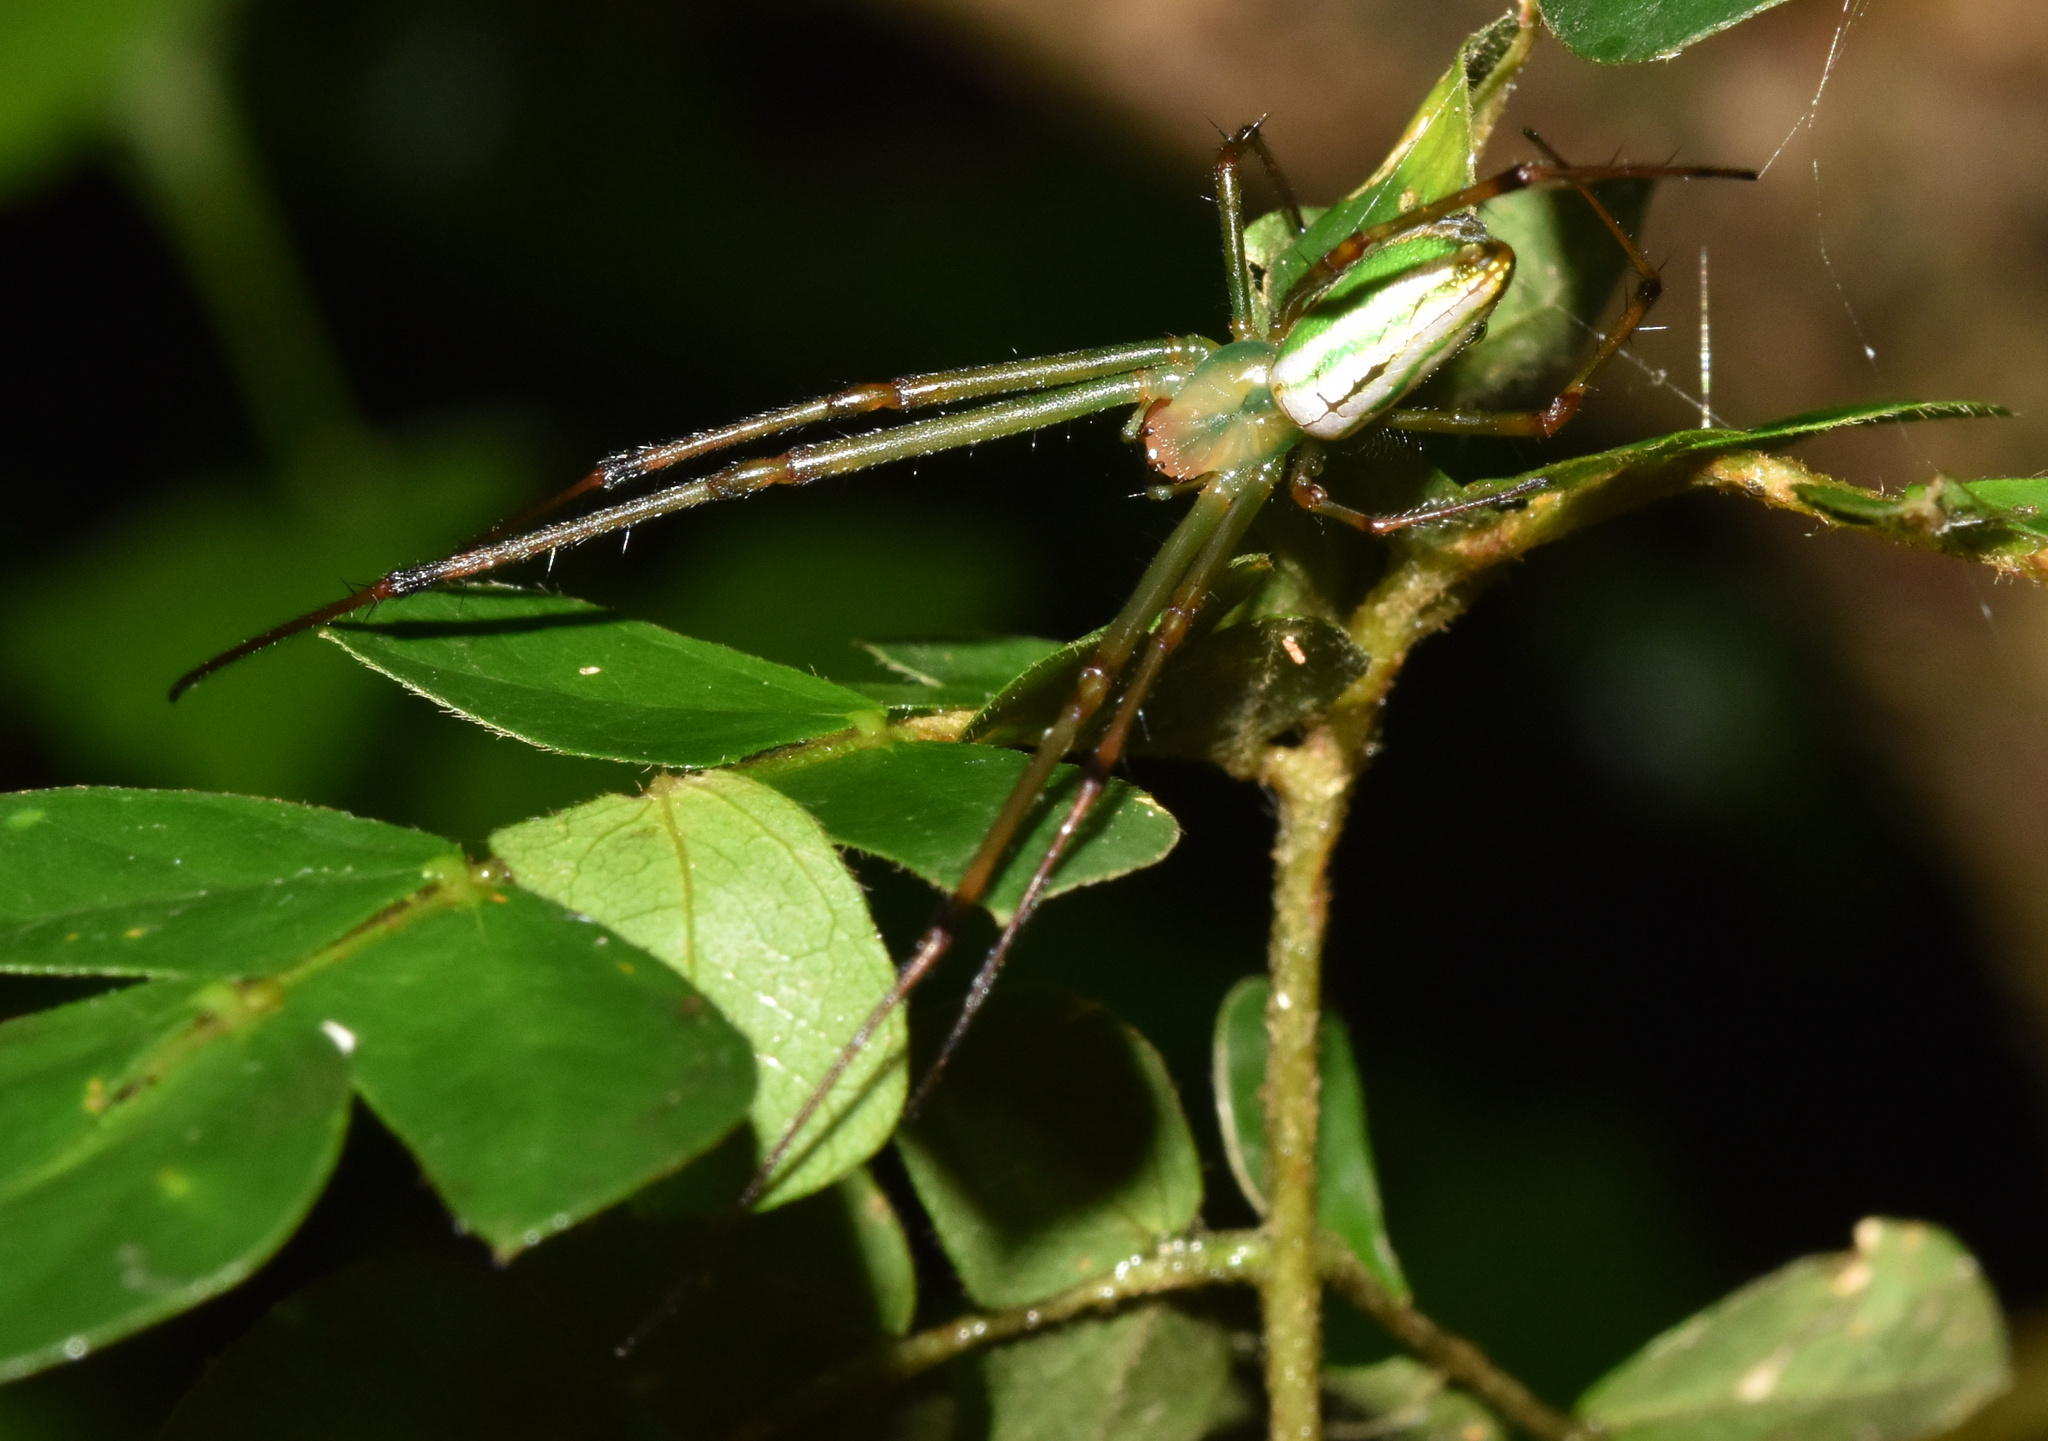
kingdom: Animalia
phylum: Arthropoda
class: Arachnida
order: Araneae
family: Tetragnathidae
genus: Leucauge
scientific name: Leucauge auronotum
